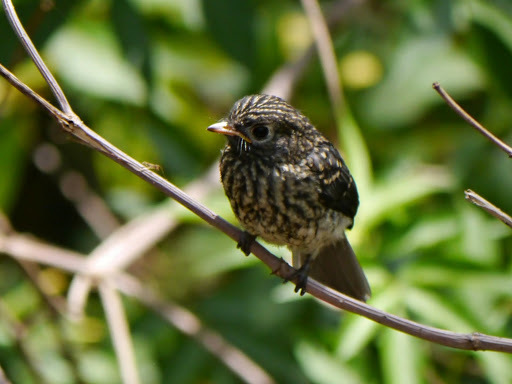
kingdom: Animalia
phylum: Chordata
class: Aves
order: Passeriformes
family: Muscicapidae
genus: Dioptrornis
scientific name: Dioptrornis fischeri
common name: White-eyed slaty flycatcher
